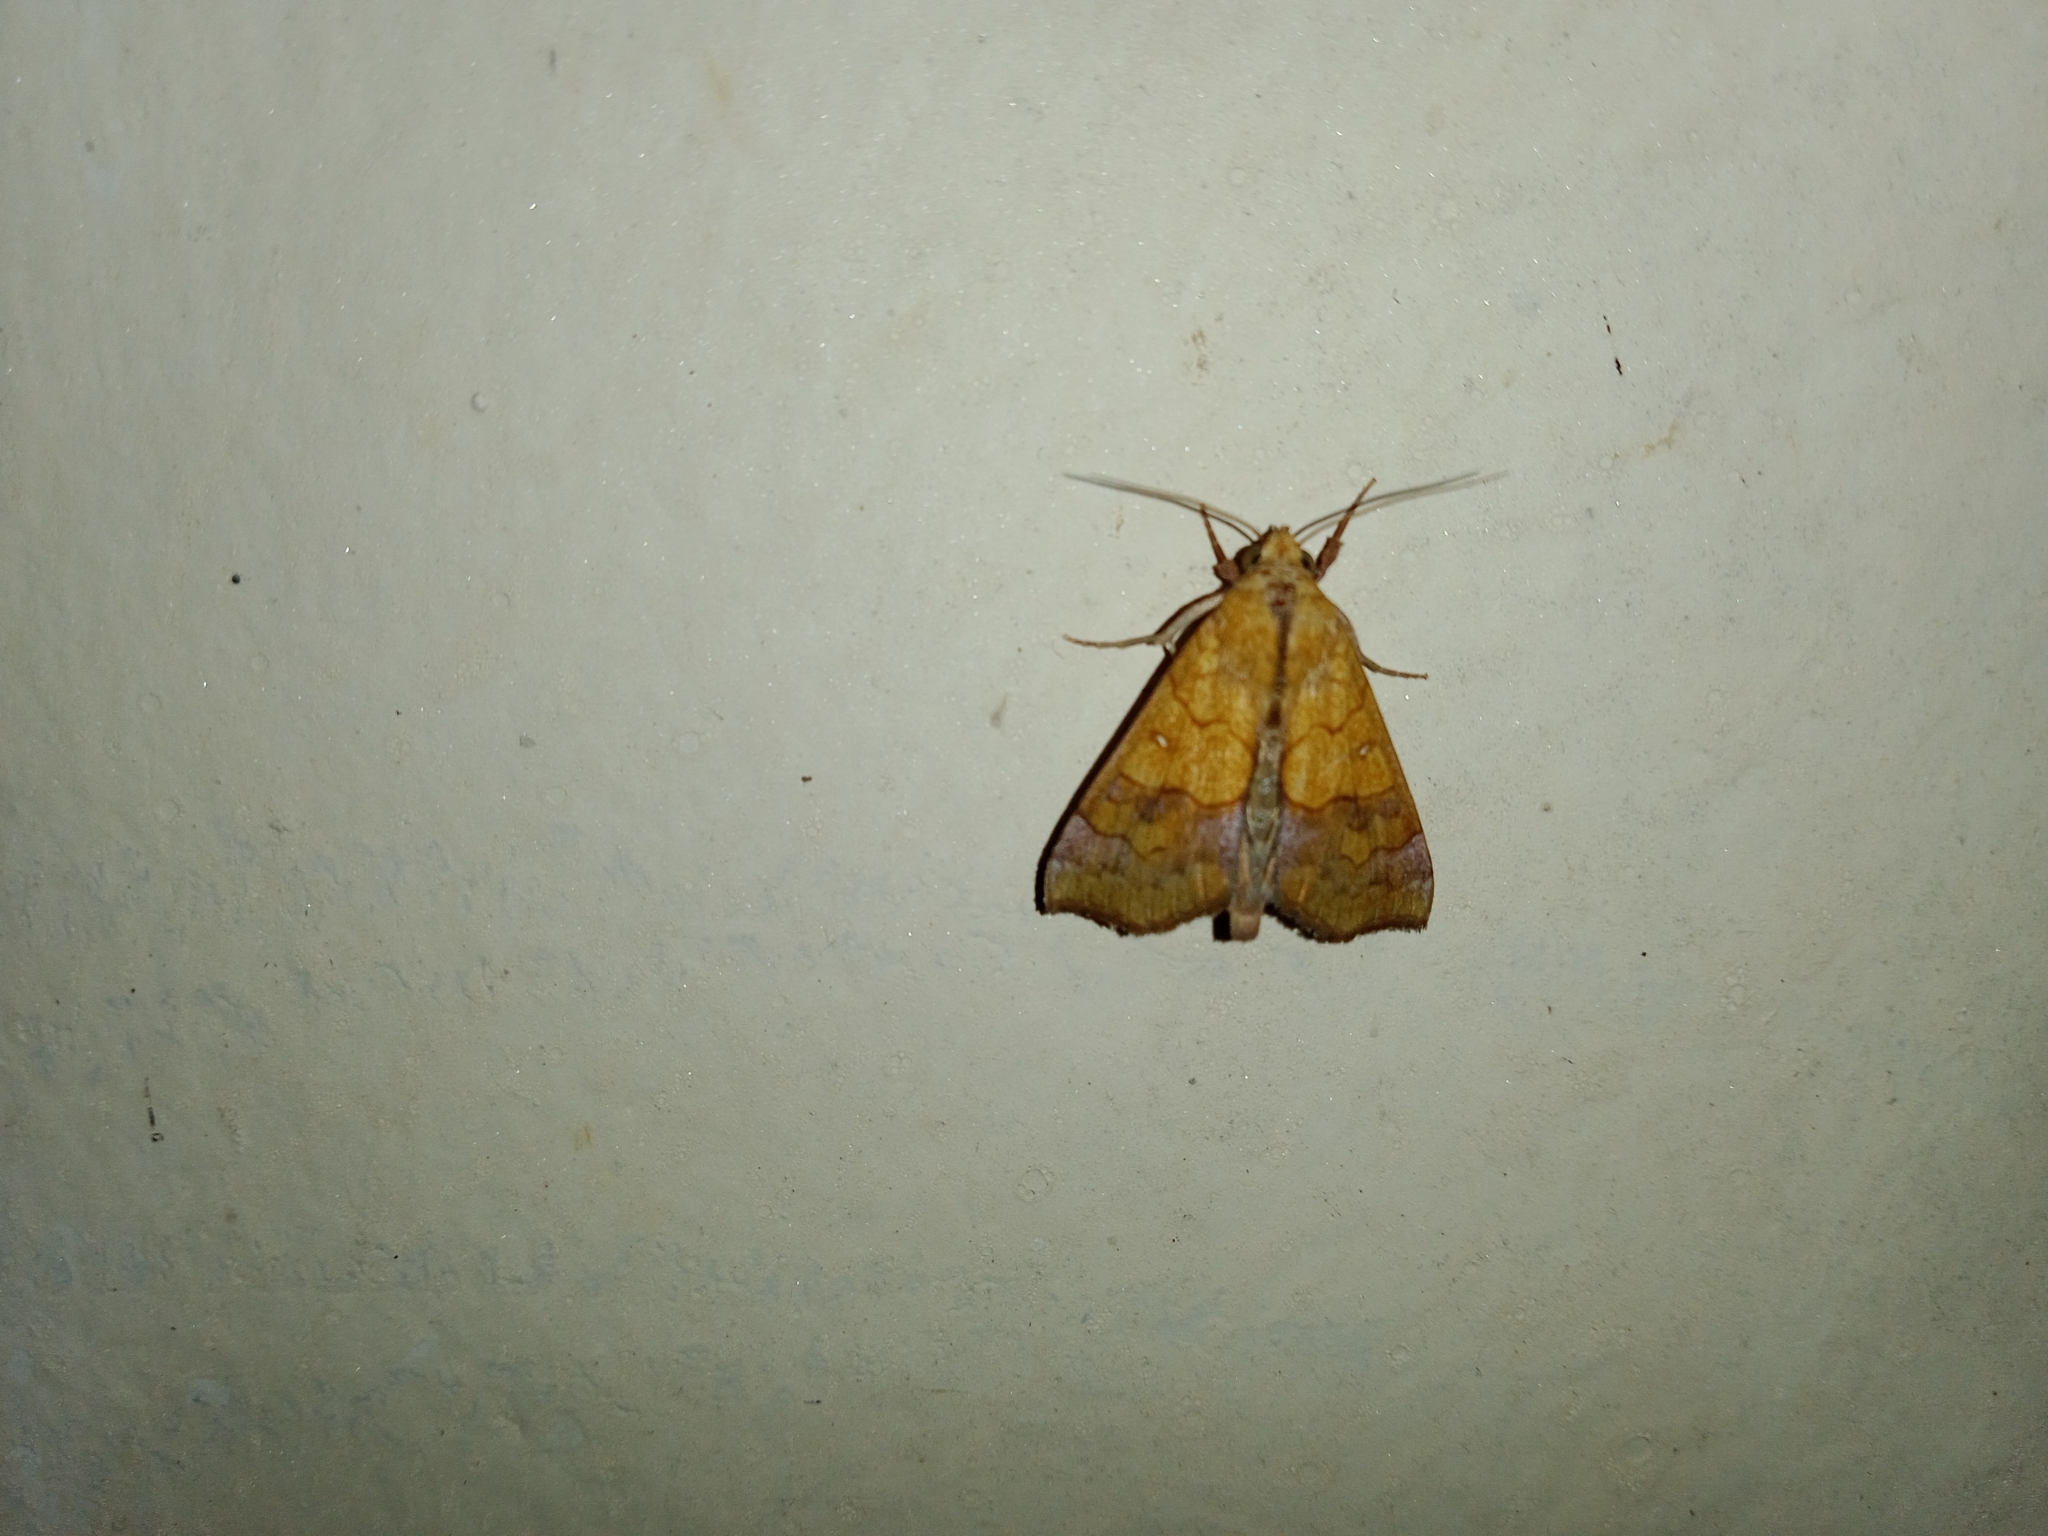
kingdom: Animalia
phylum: Arthropoda
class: Insecta
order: Lepidoptera
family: Erebidae
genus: Anomis
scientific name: Anomis flava
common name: Moth
